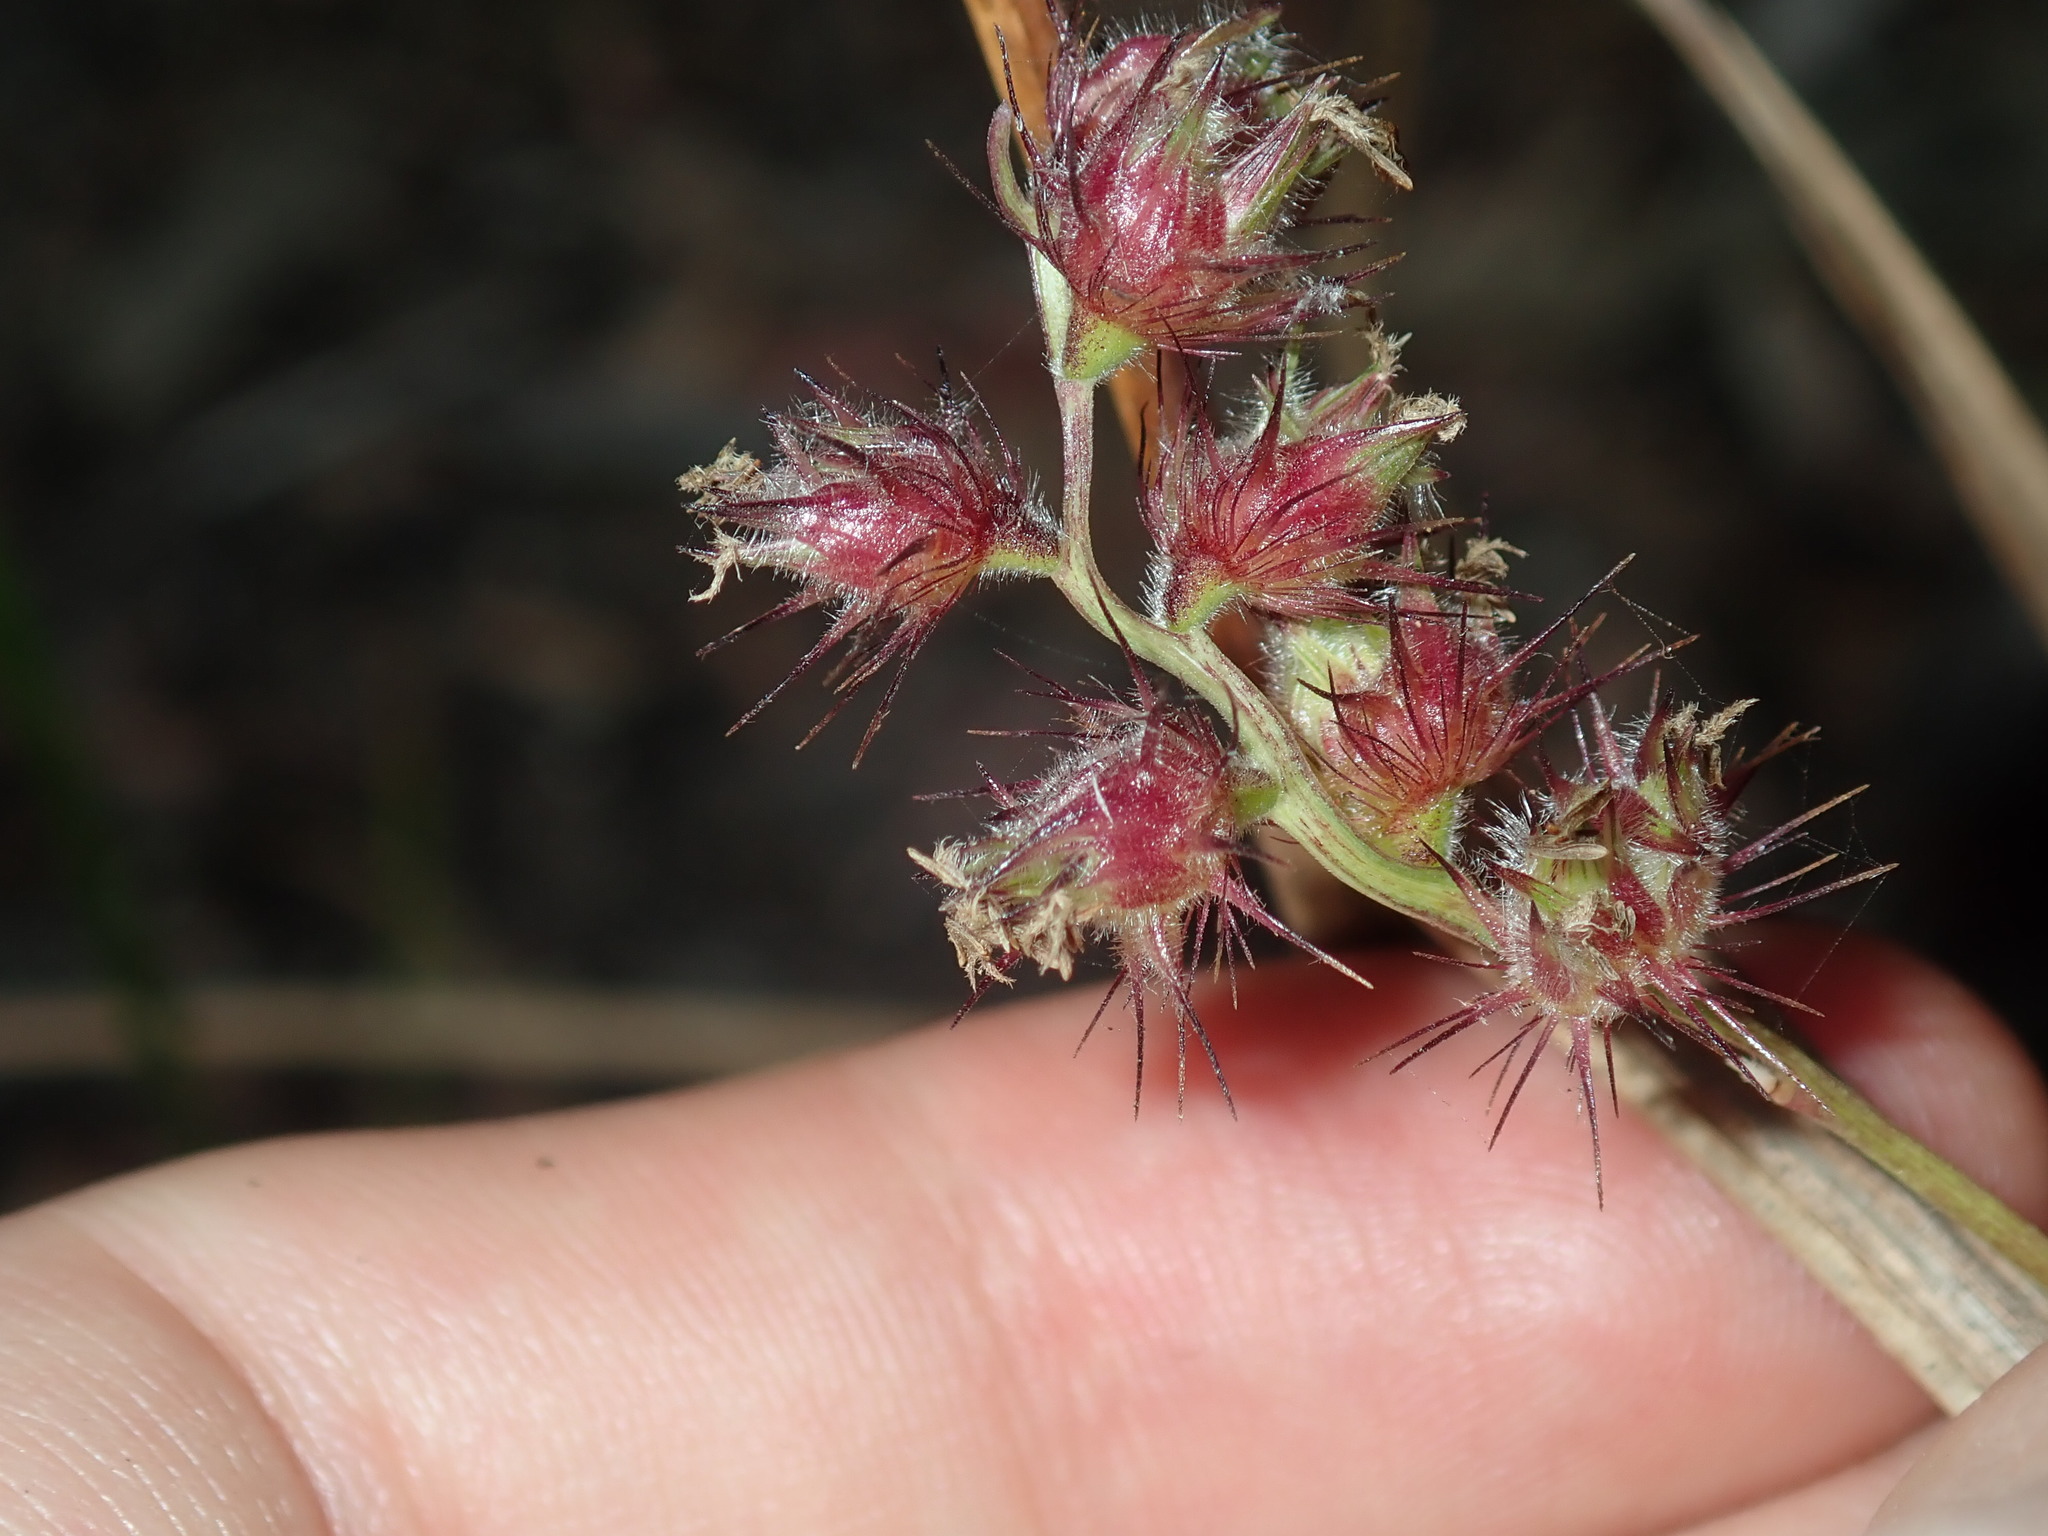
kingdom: Plantae
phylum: Tracheophyta
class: Liliopsida
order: Poales
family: Poaceae
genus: Cenchrus
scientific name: Cenchrus echinatus
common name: Southern sandbur
